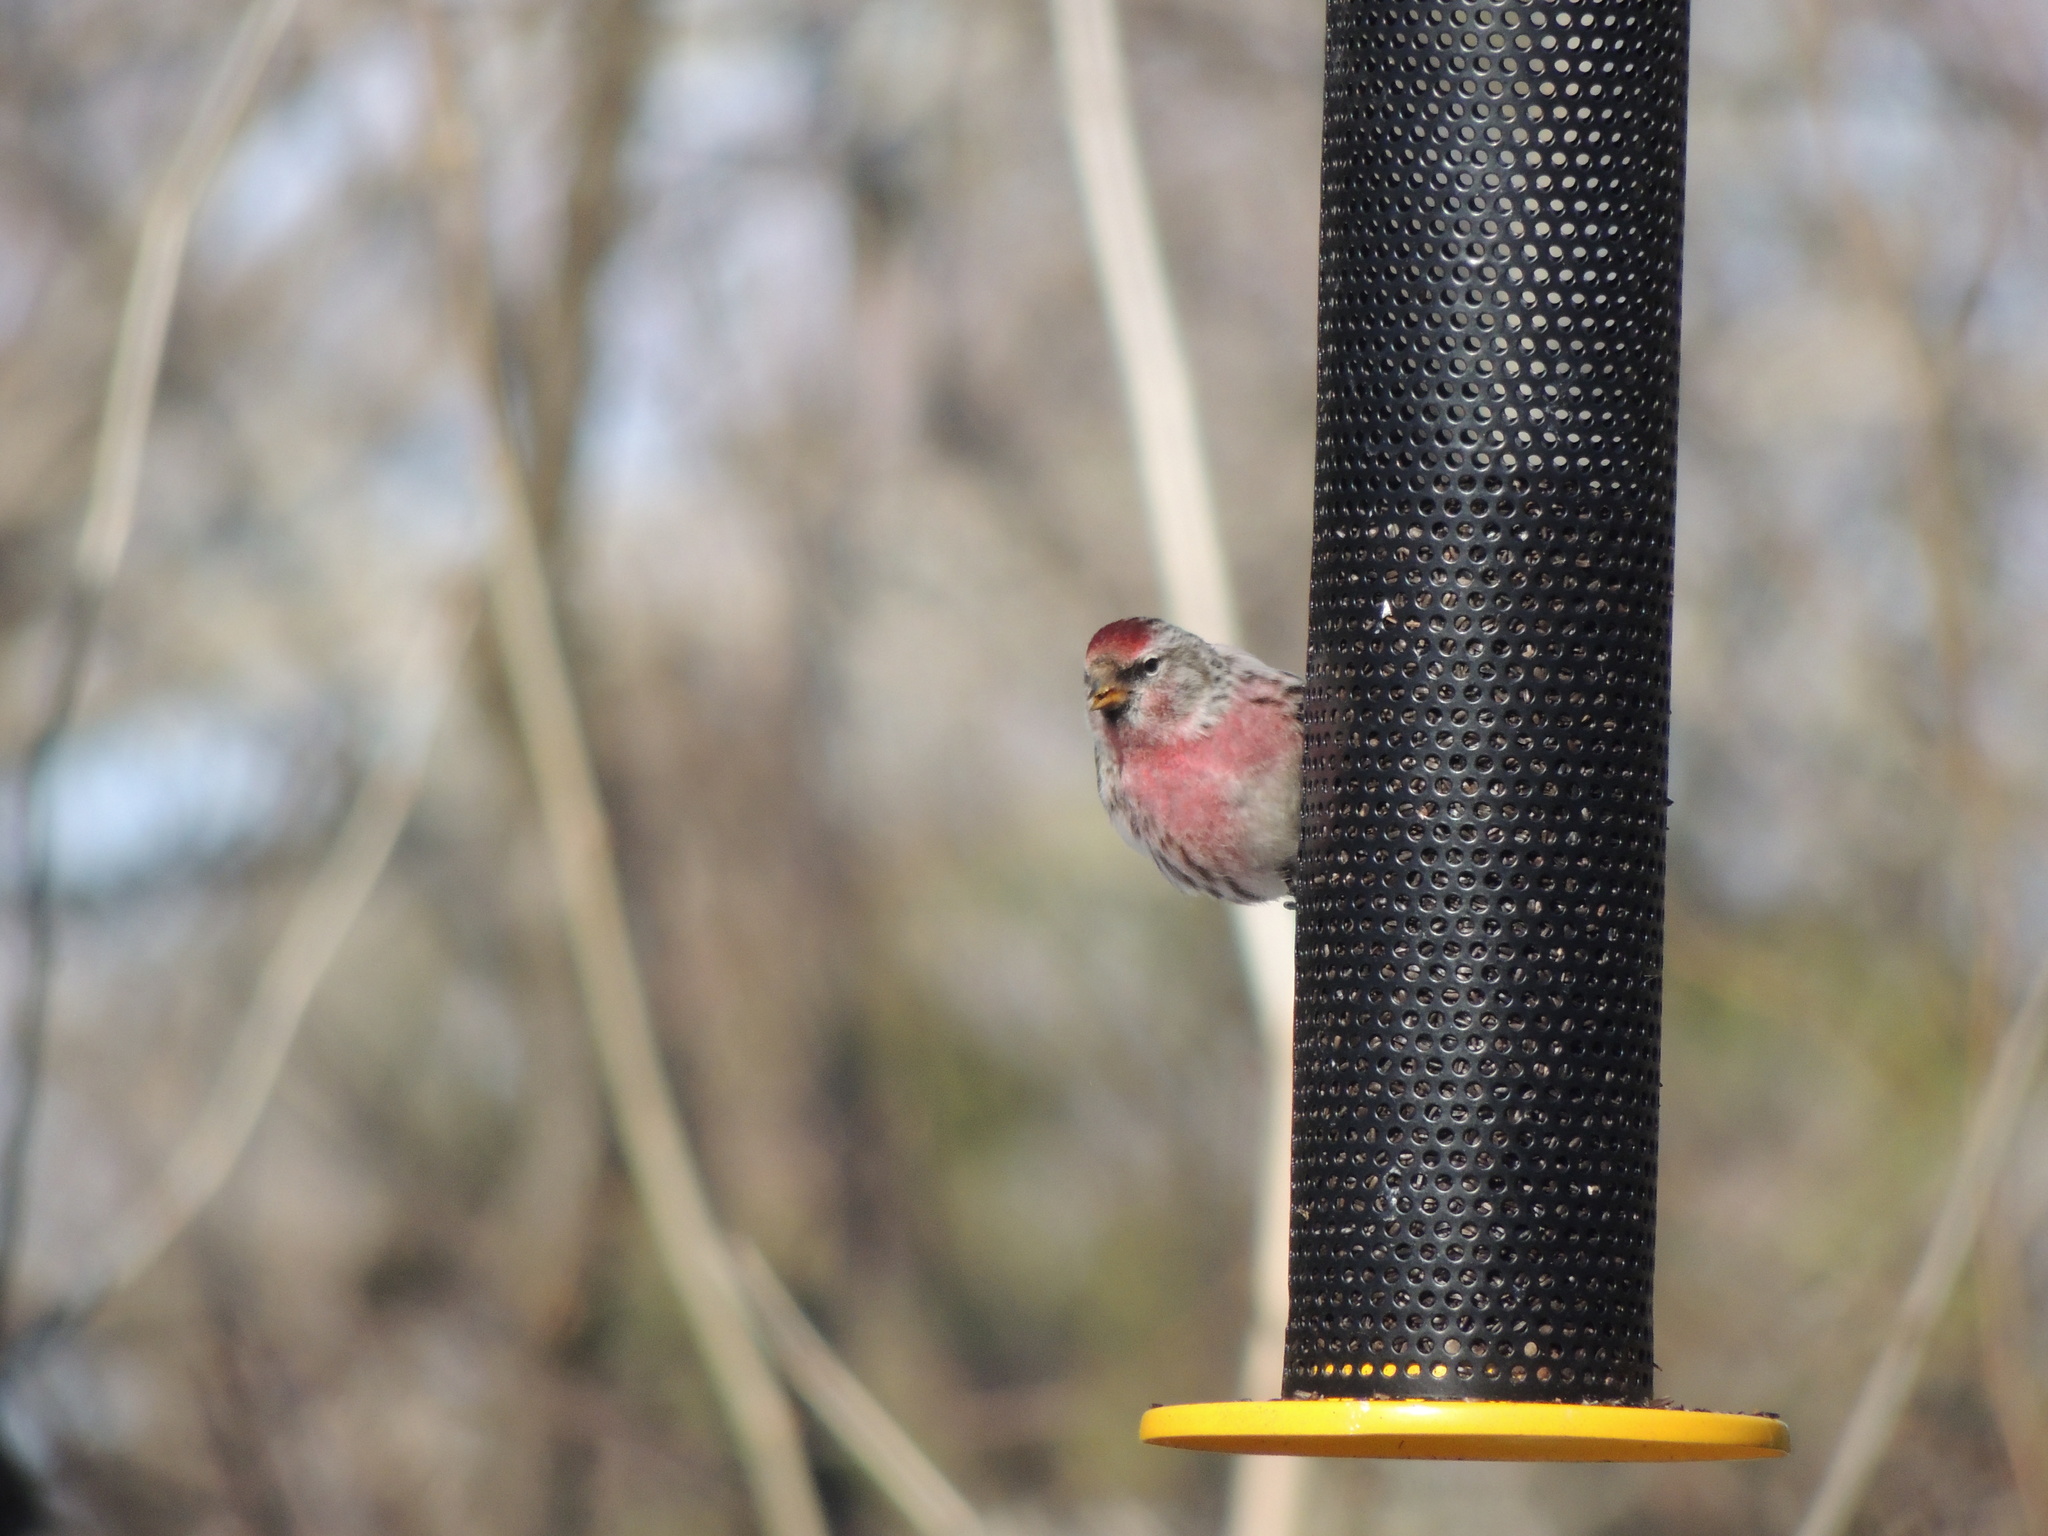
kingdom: Animalia
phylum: Chordata
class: Aves
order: Passeriformes
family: Fringillidae
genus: Acanthis
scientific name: Acanthis flammea
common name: Common redpoll
